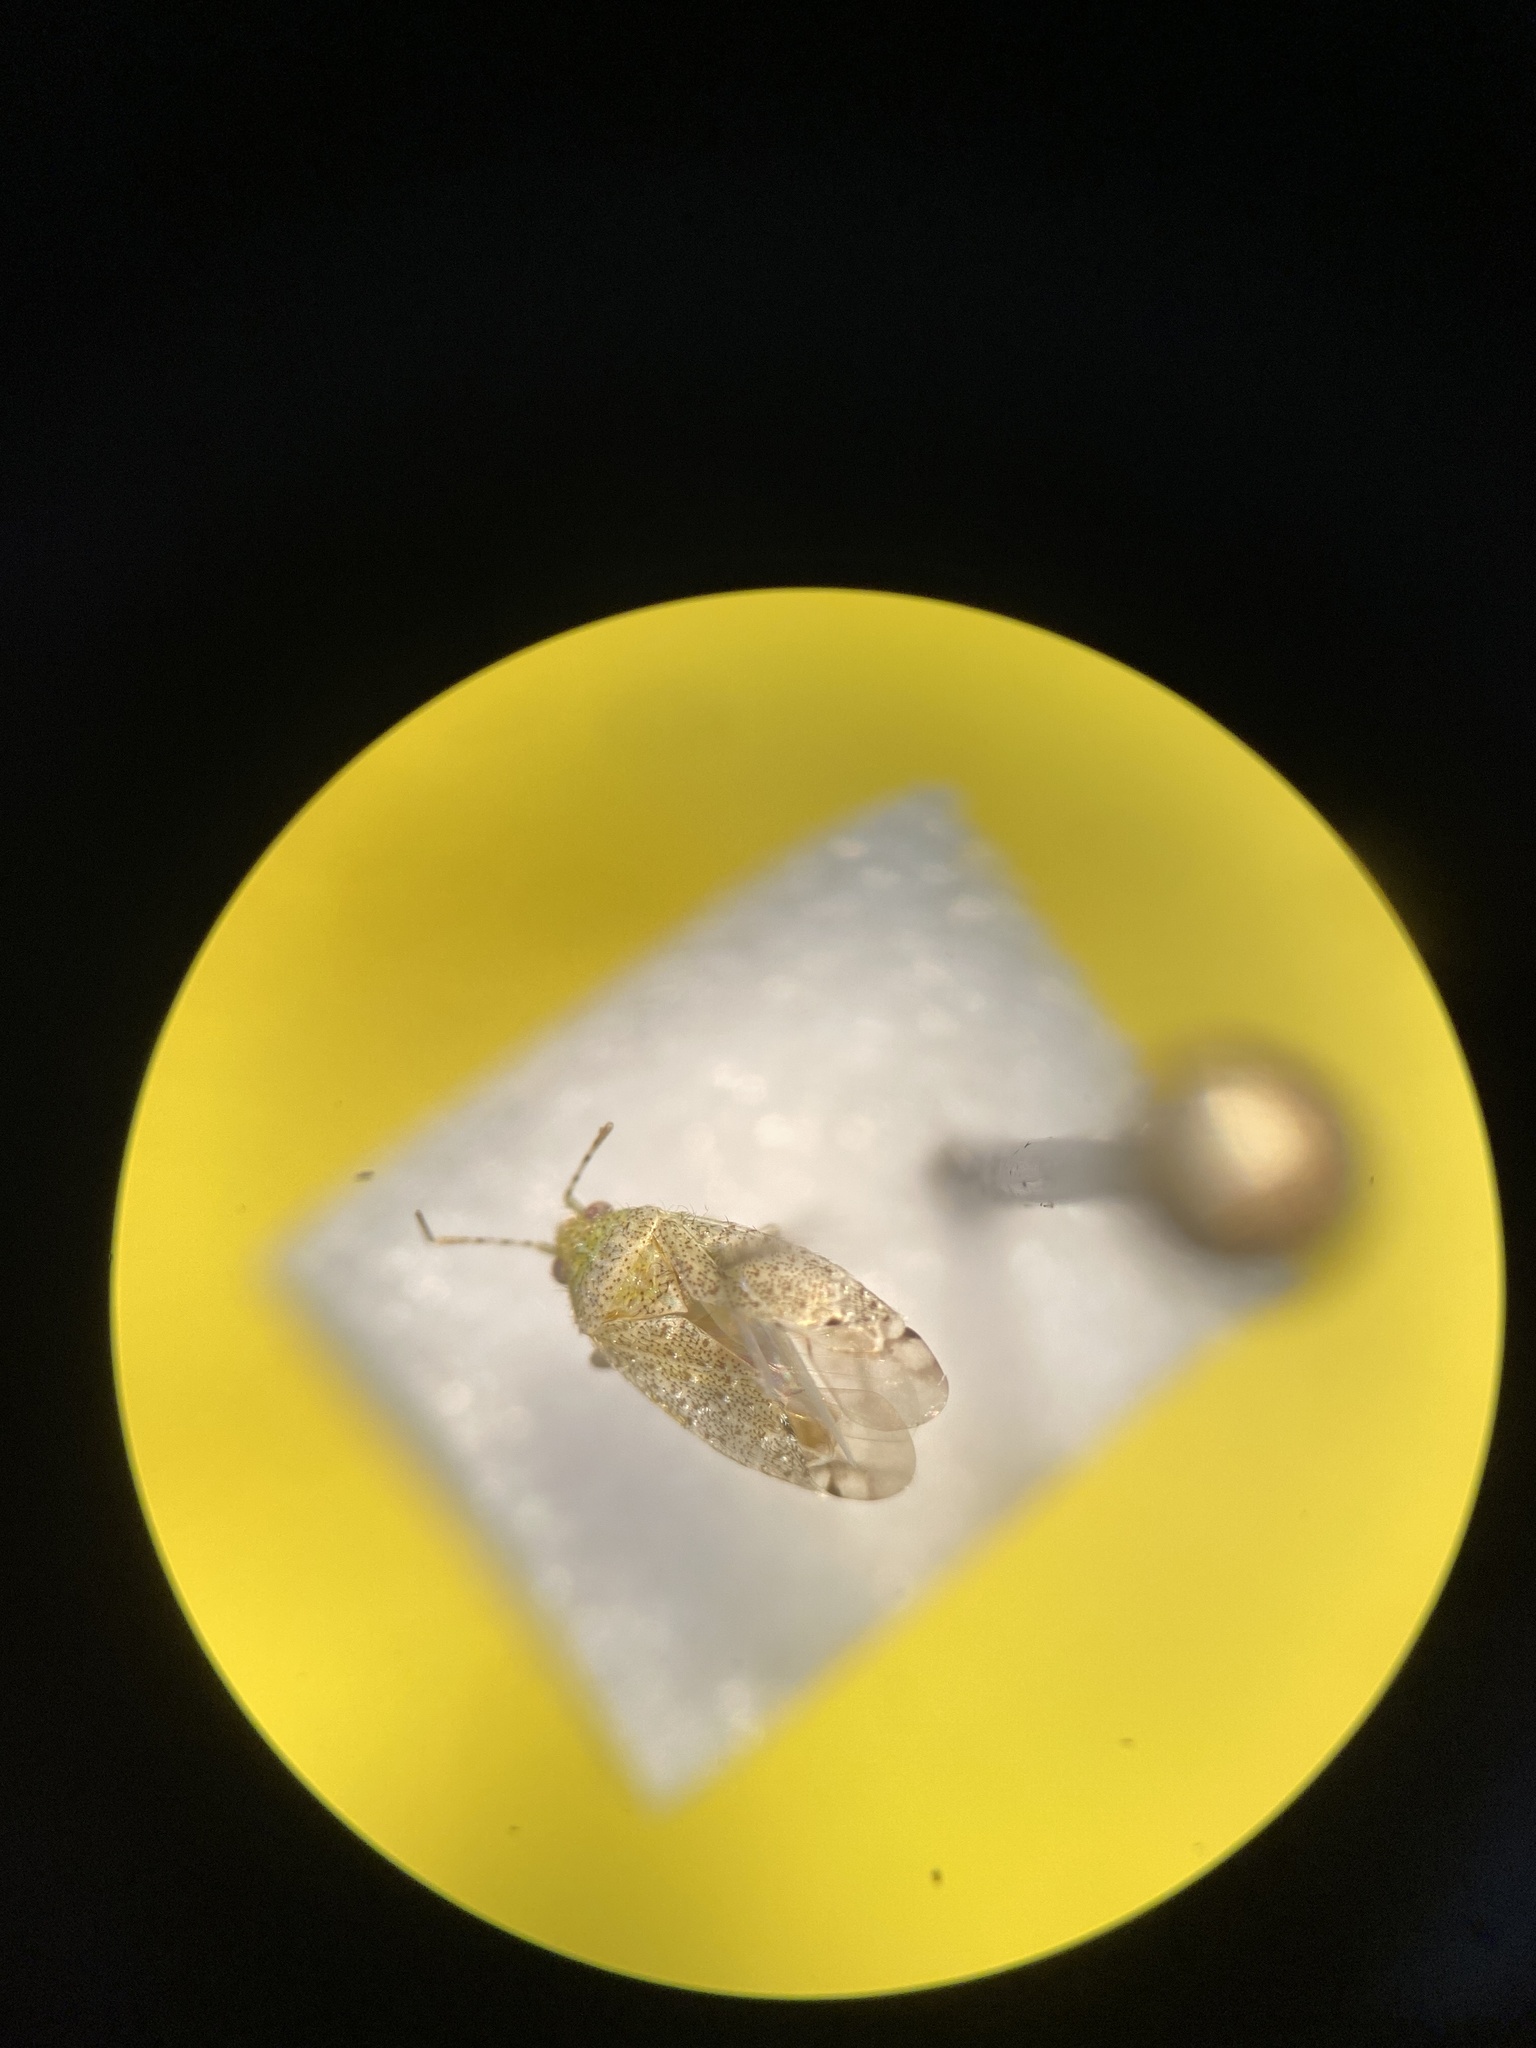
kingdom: Animalia
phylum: Arthropoda
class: Insecta
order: Hemiptera
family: Miridae
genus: Pseudatomoscelis
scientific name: Pseudatomoscelis seriatus
